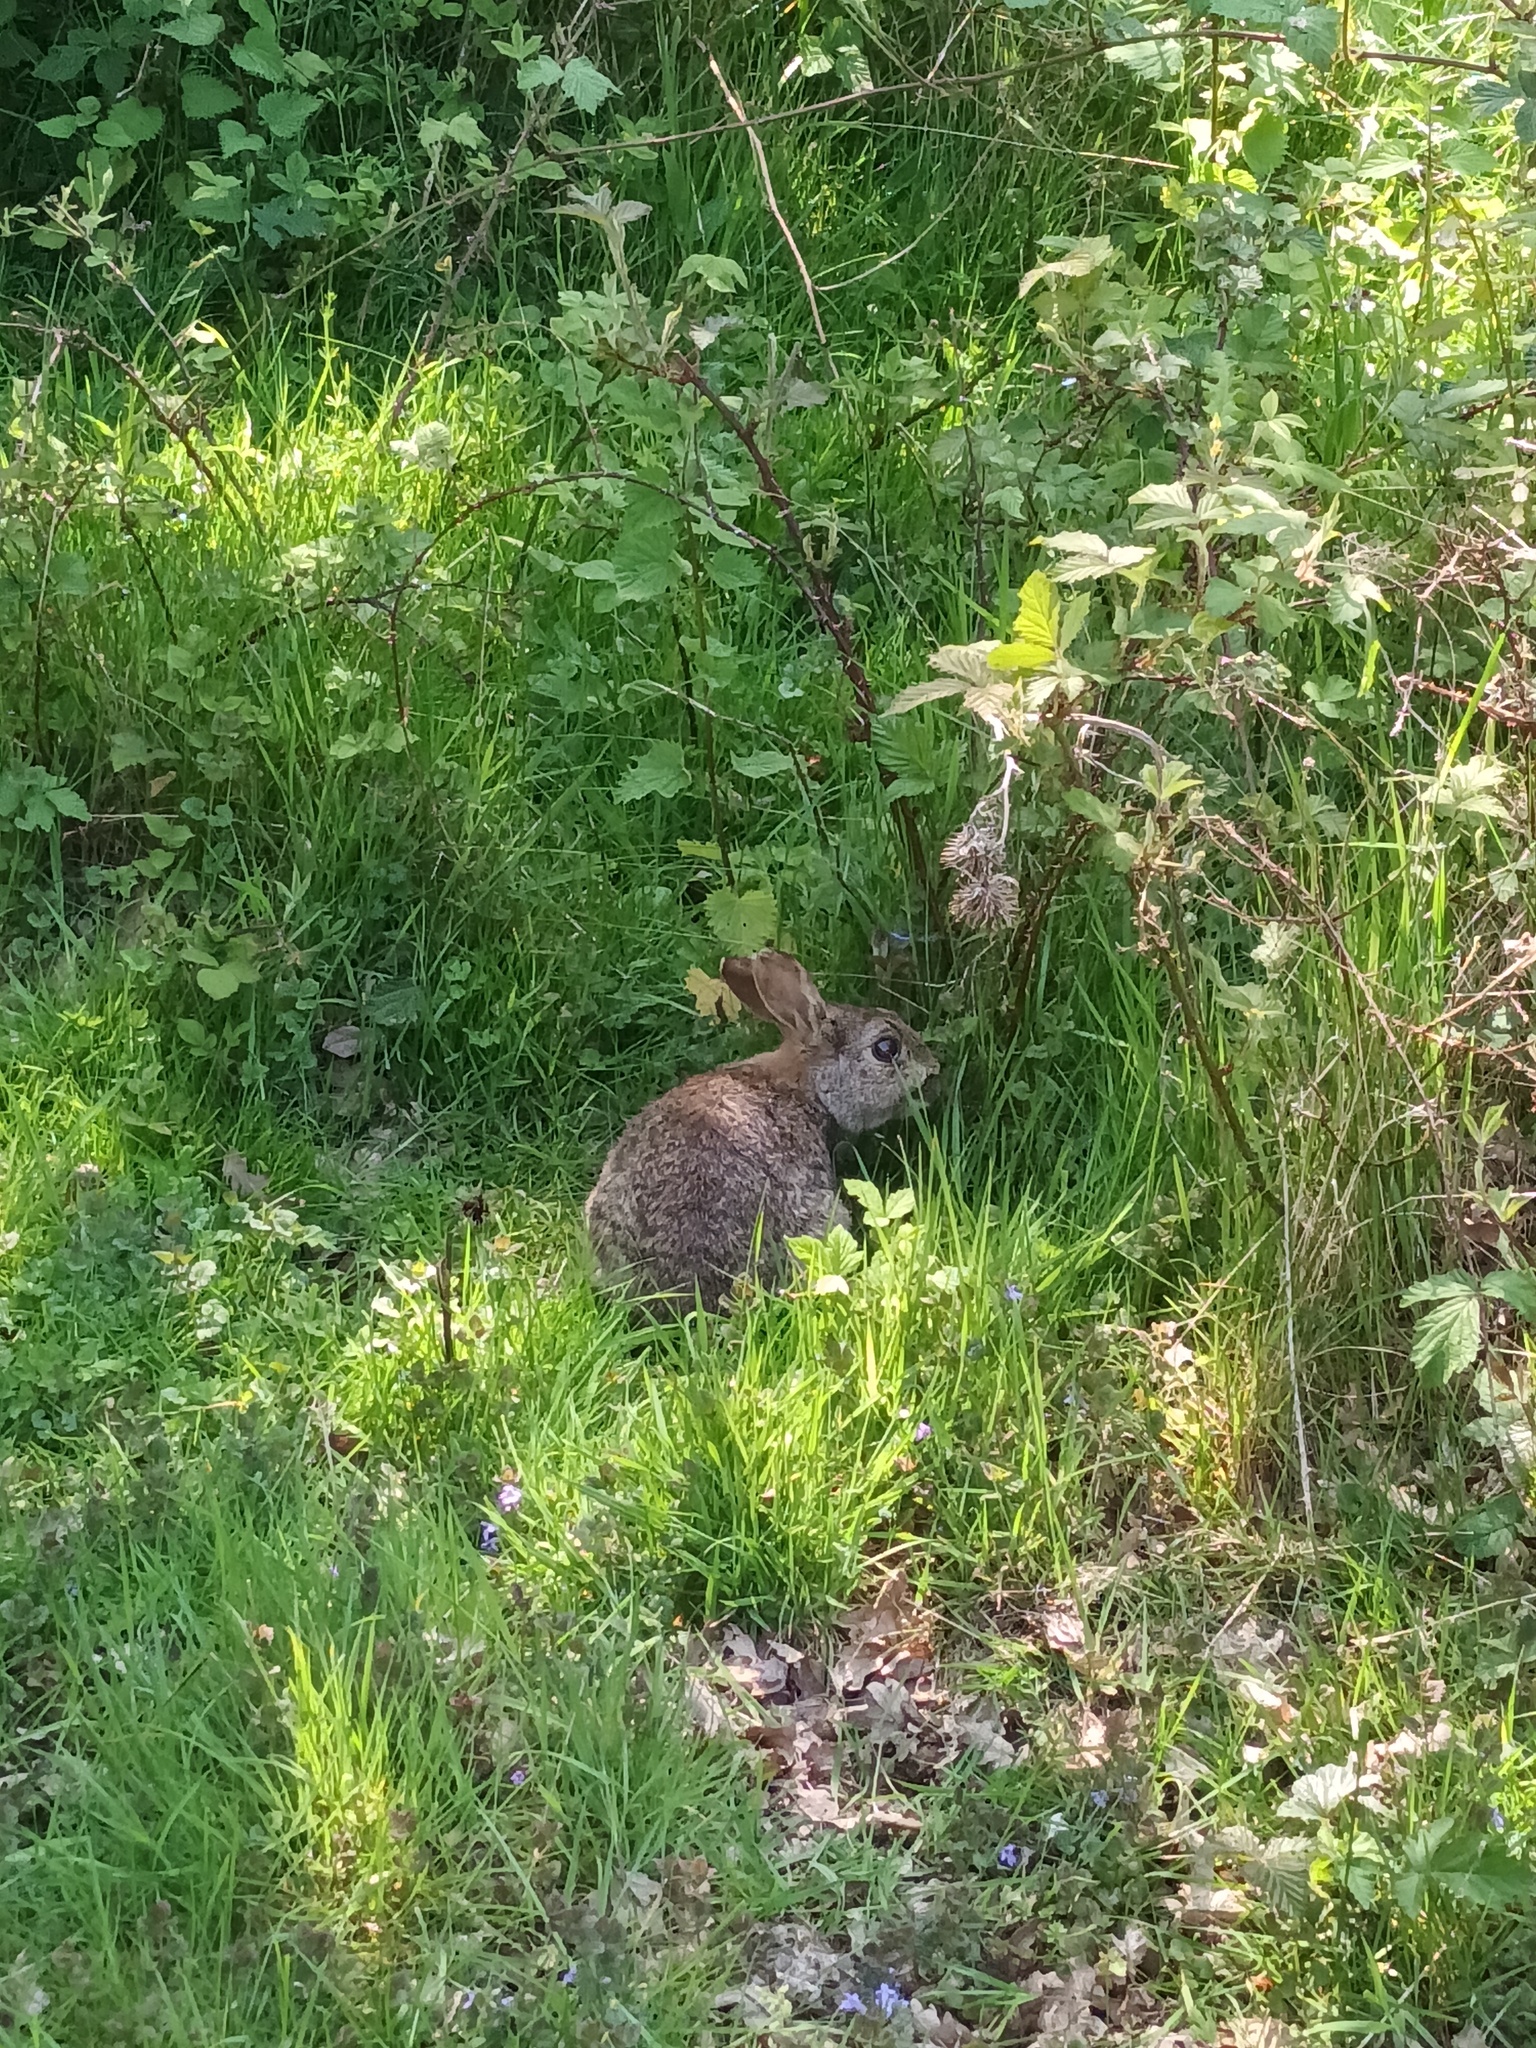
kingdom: Animalia
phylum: Chordata
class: Mammalia
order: Lagomorpha
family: Leporidae
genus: Oryctolagus
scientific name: Oryctolagus cuniculus
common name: European rabbit
